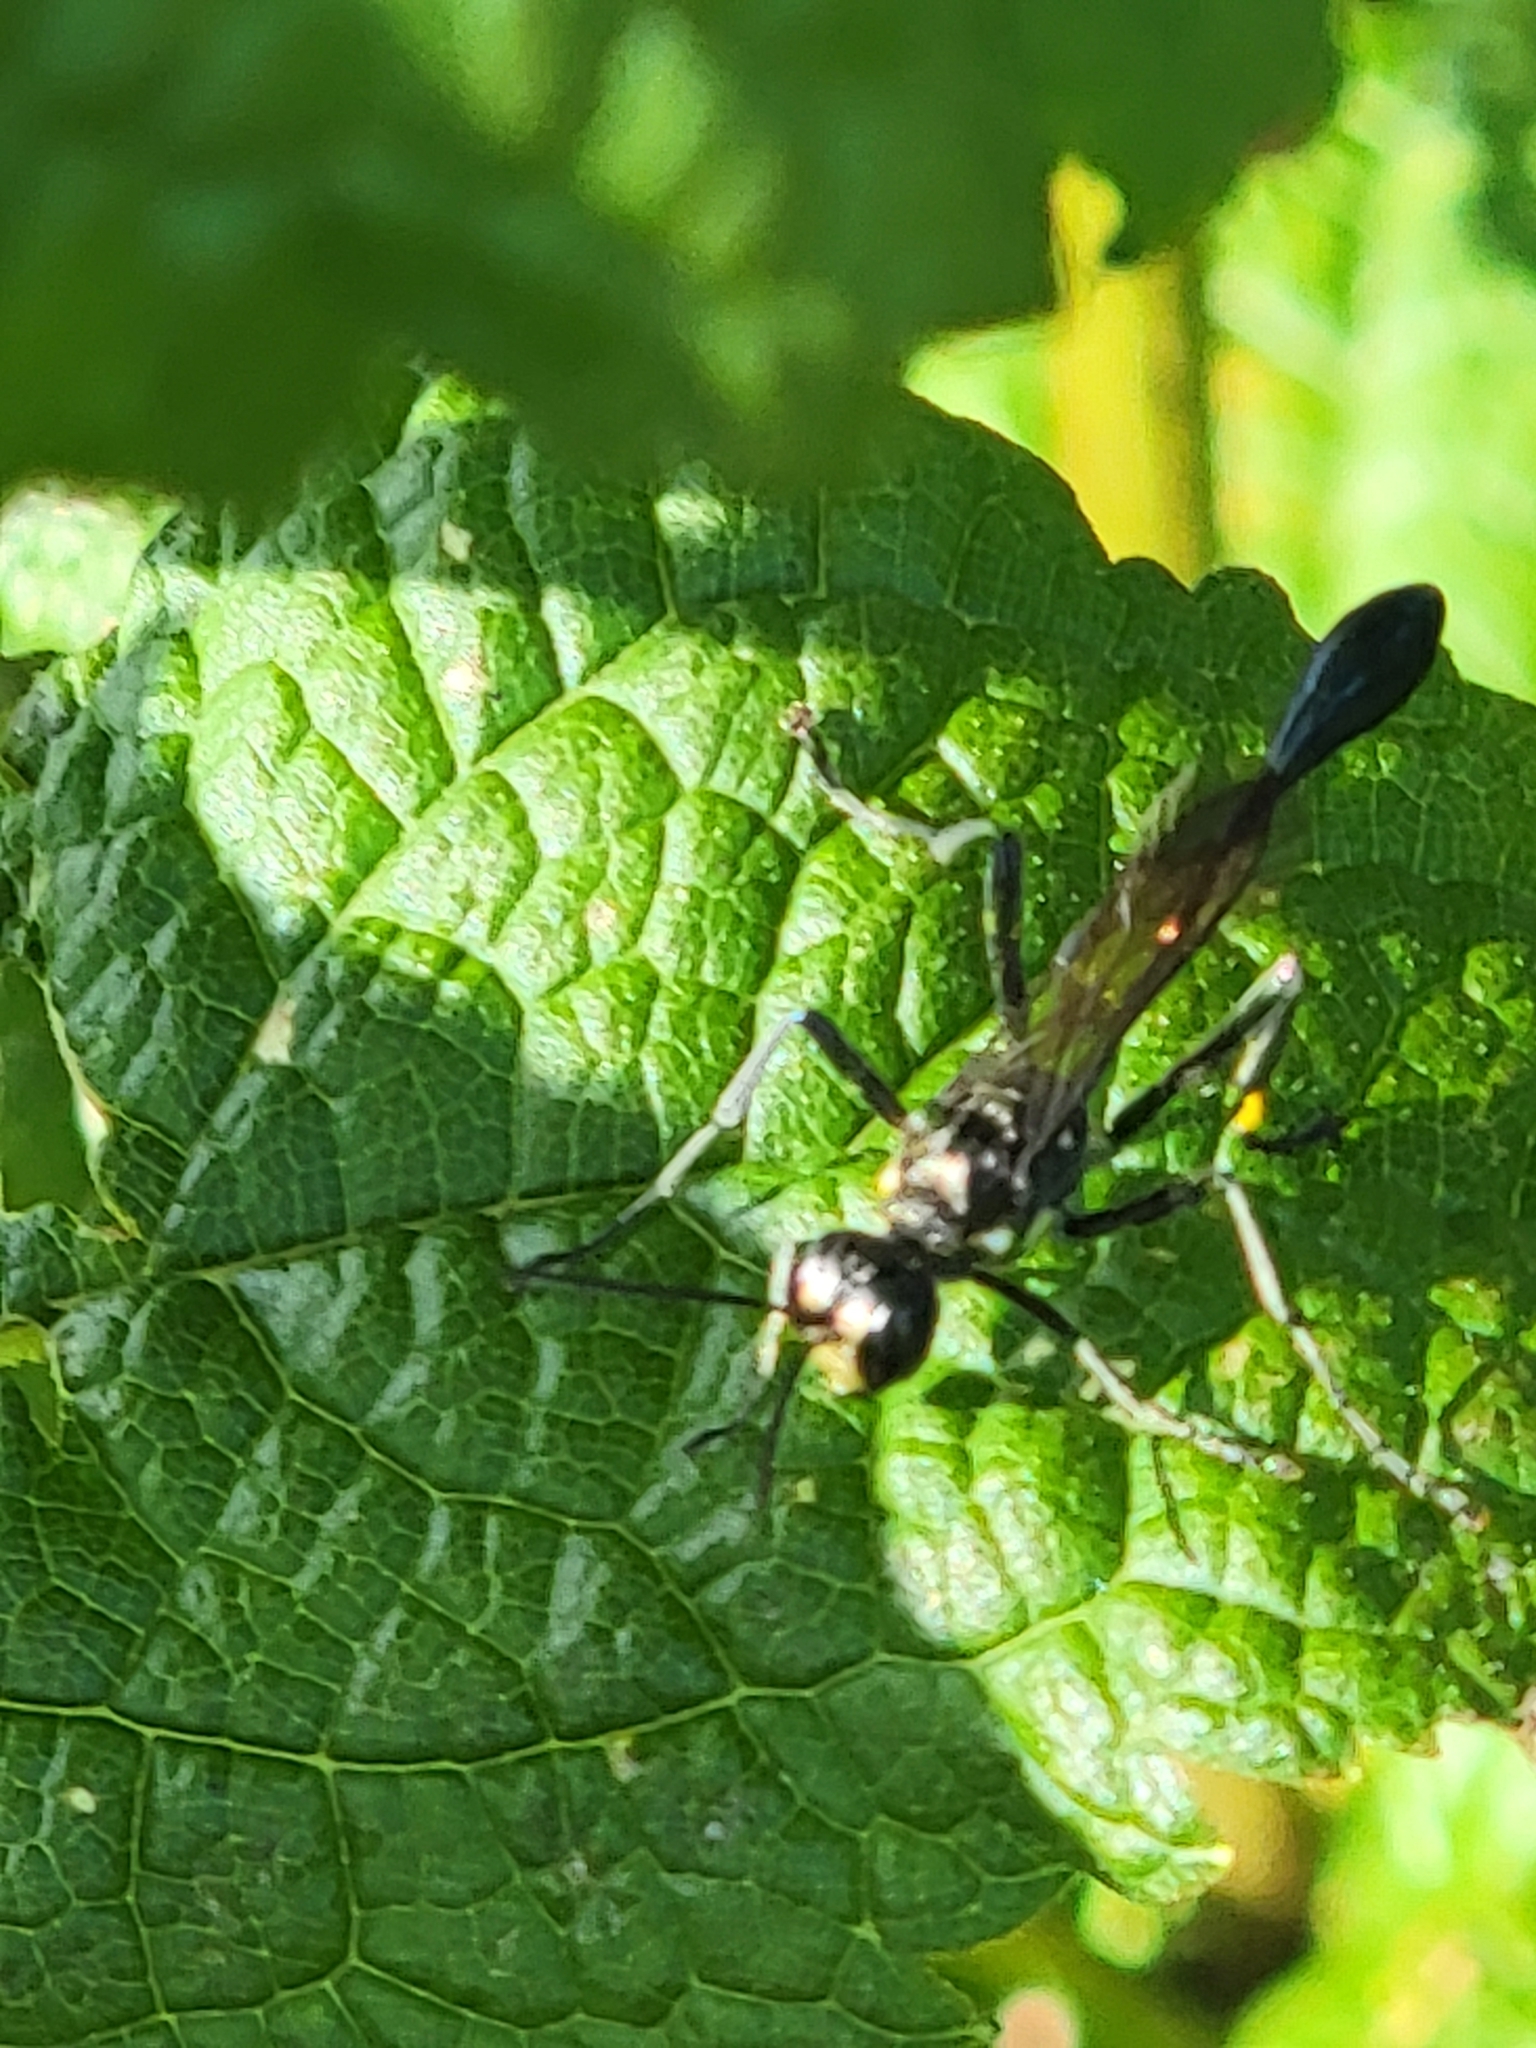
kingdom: Animalia
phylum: Arthropoda
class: Insecta
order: Hymenoptera
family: Sphecidae
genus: Eremnophila
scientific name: Eremnophila aureonotata
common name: Gold-marked thread-waisted wasp
